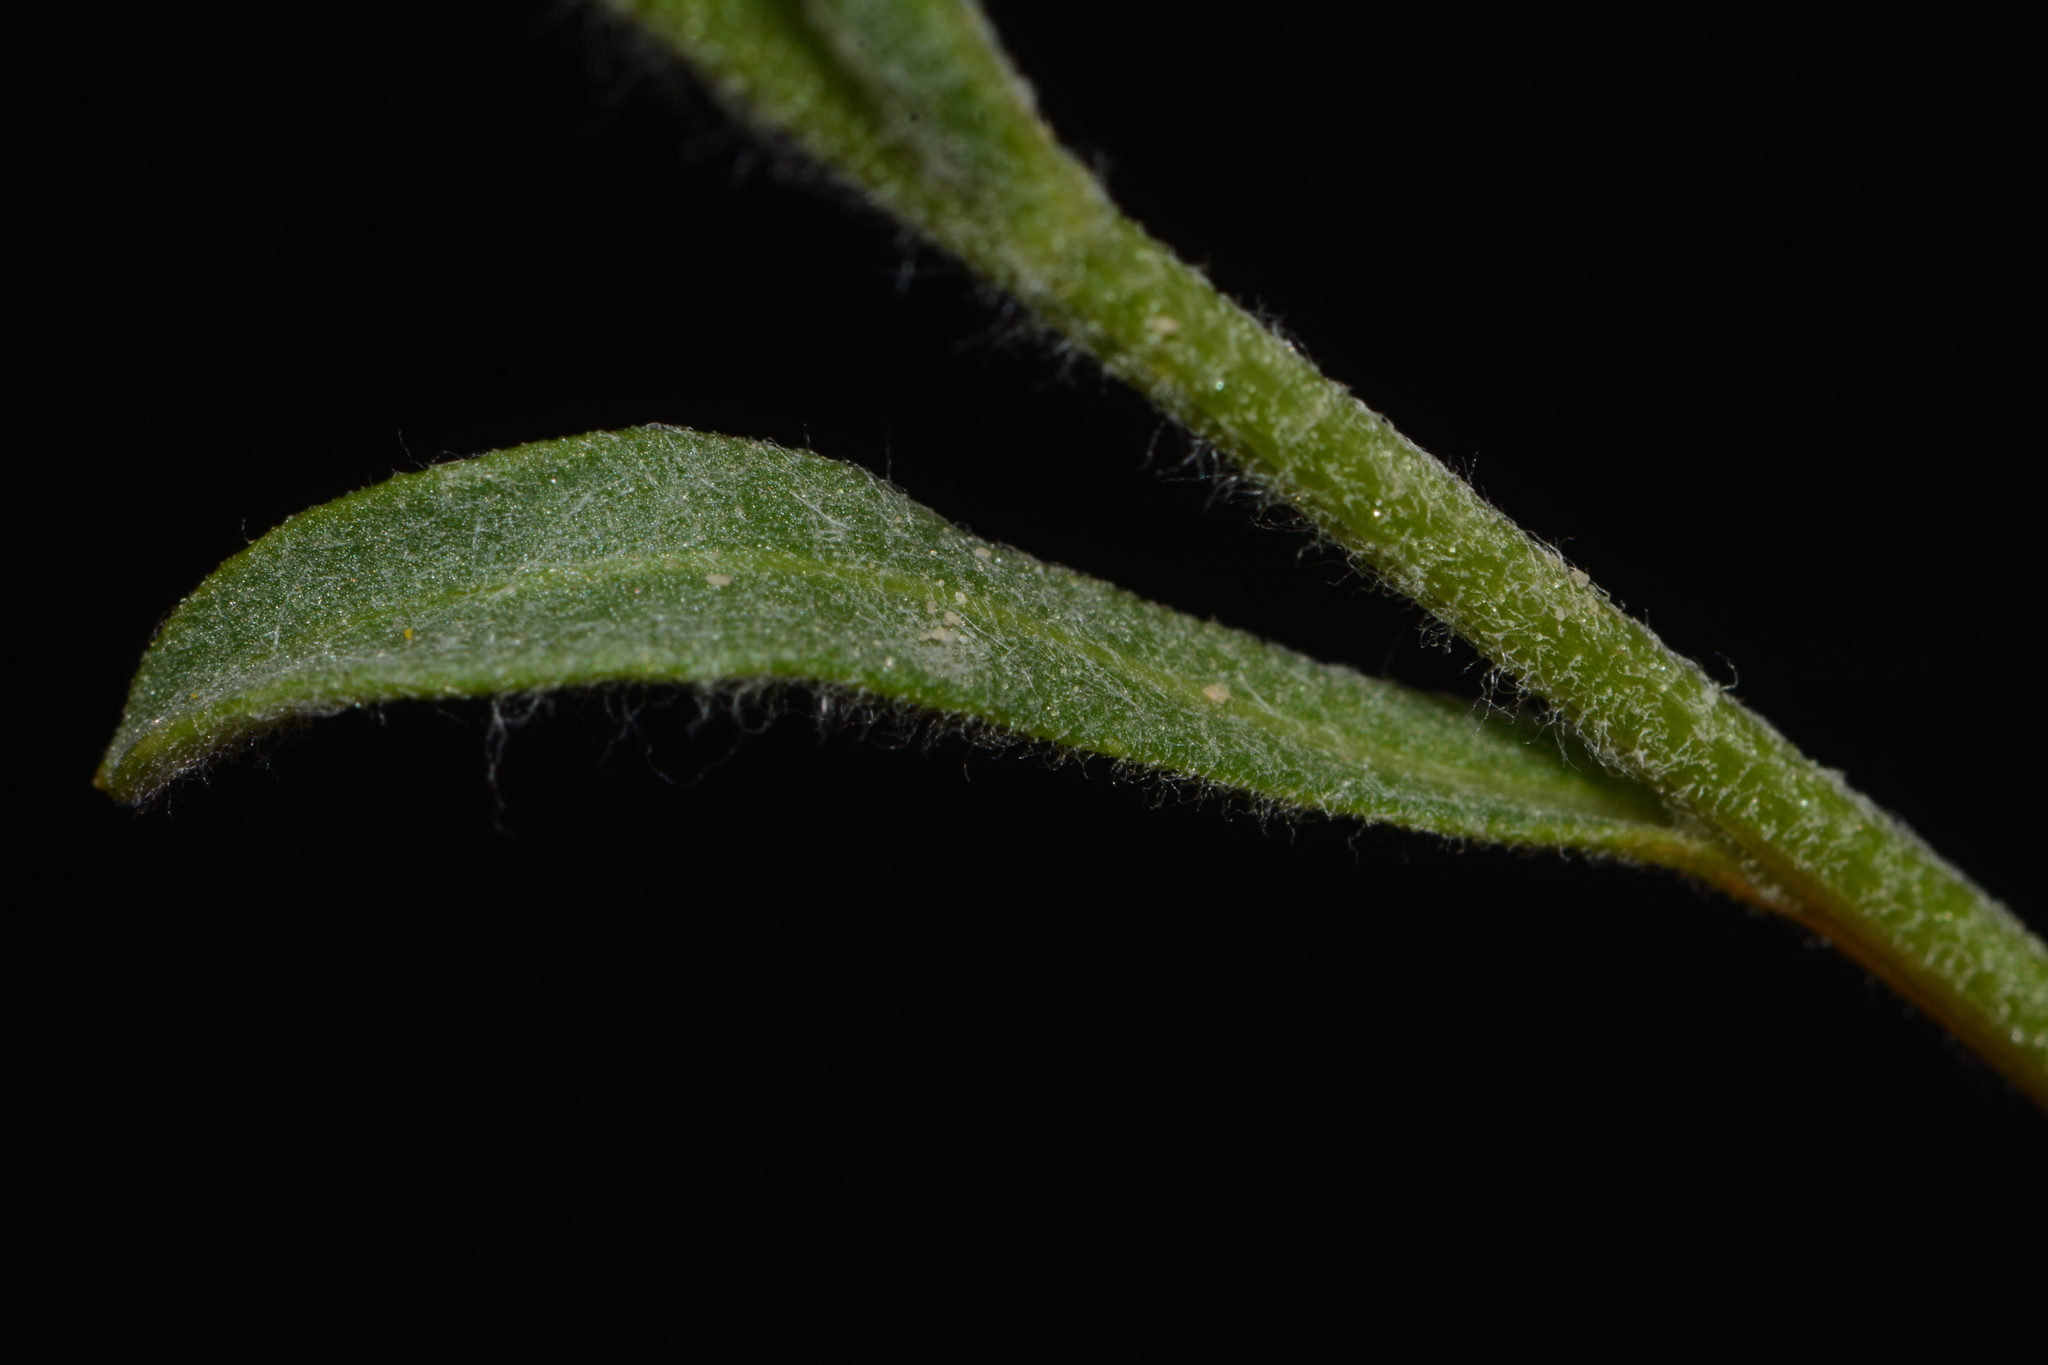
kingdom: Plantae
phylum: Tracheophyta
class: Magnoliopsida
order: Asterales
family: Asteraceae
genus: Psilostrophe
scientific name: Psilostrophe tagetina
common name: Marigold paper-flower
